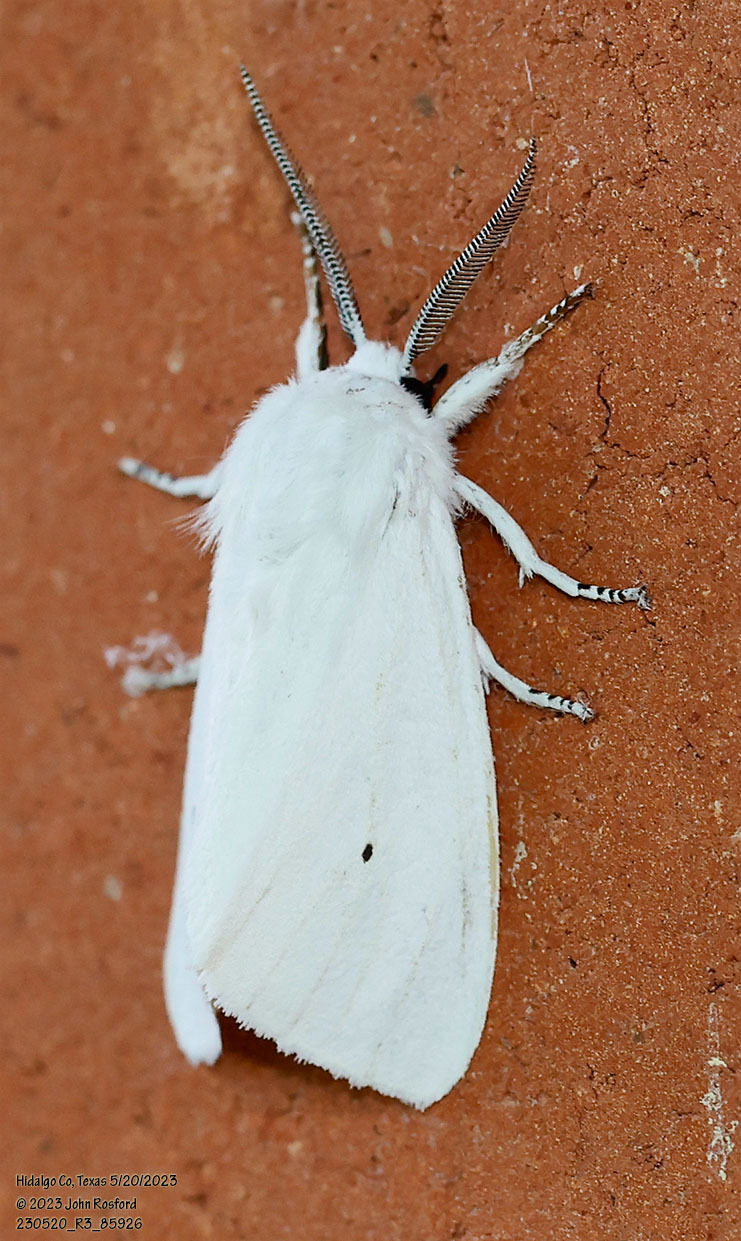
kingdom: Animalia
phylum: Arthropoda
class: Insecta
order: Lepidoptera
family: Erebidae
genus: Spilosoma
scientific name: Spilosoma virginica
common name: Virginia tiger moth
